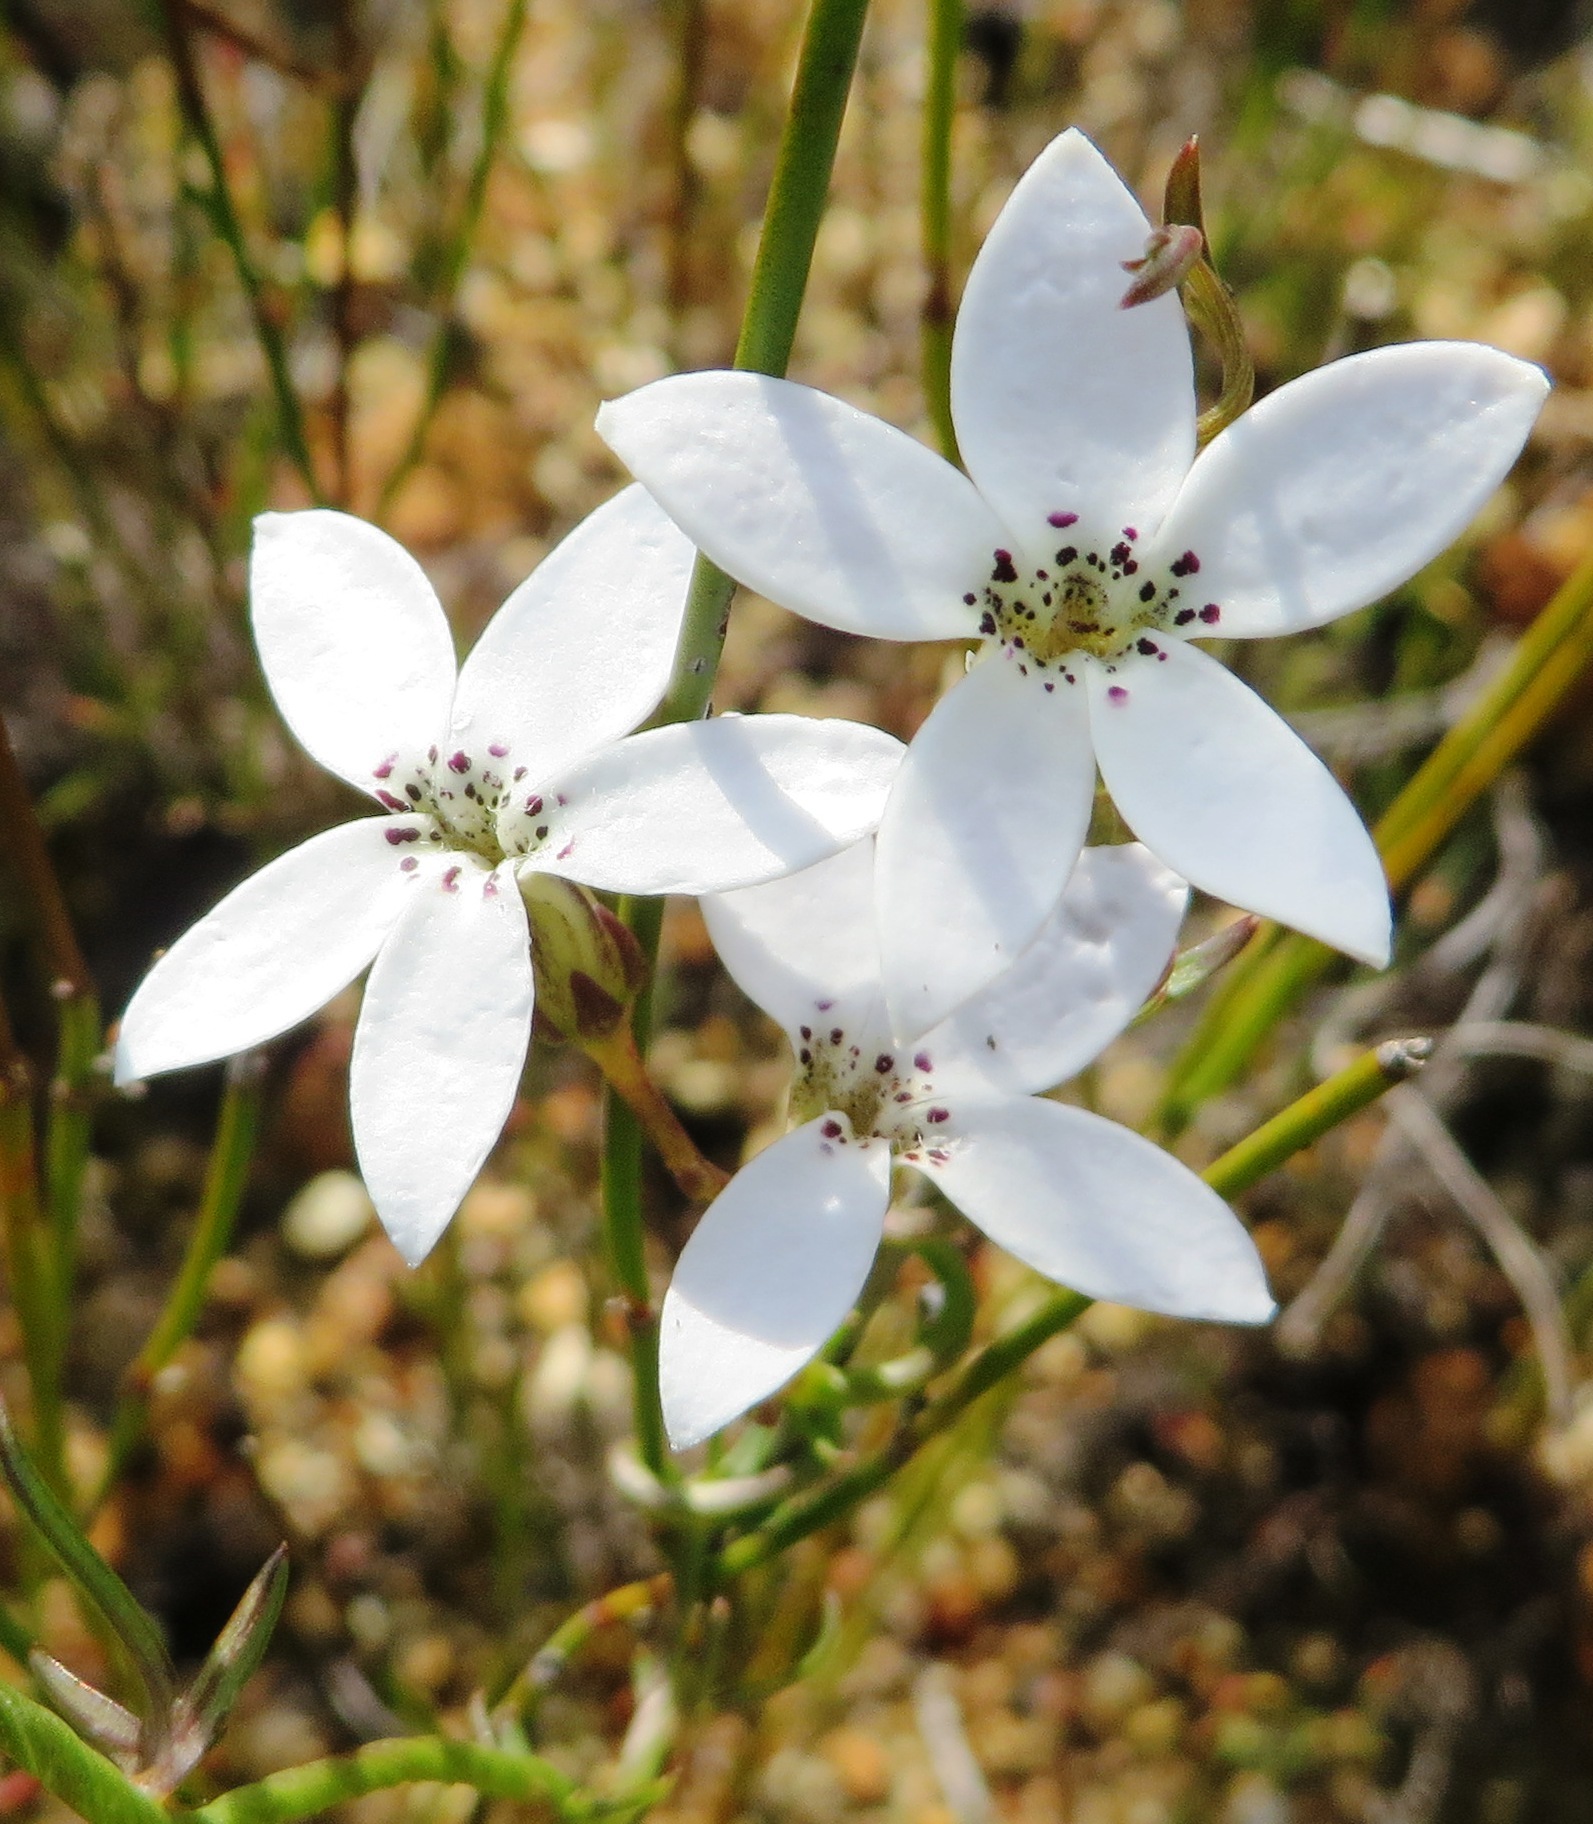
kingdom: Plantae
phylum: Tracheophyta
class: Magnoliopsida
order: Asterales
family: Campanulaceae
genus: Cyphia
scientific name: Cyphia volubilis
